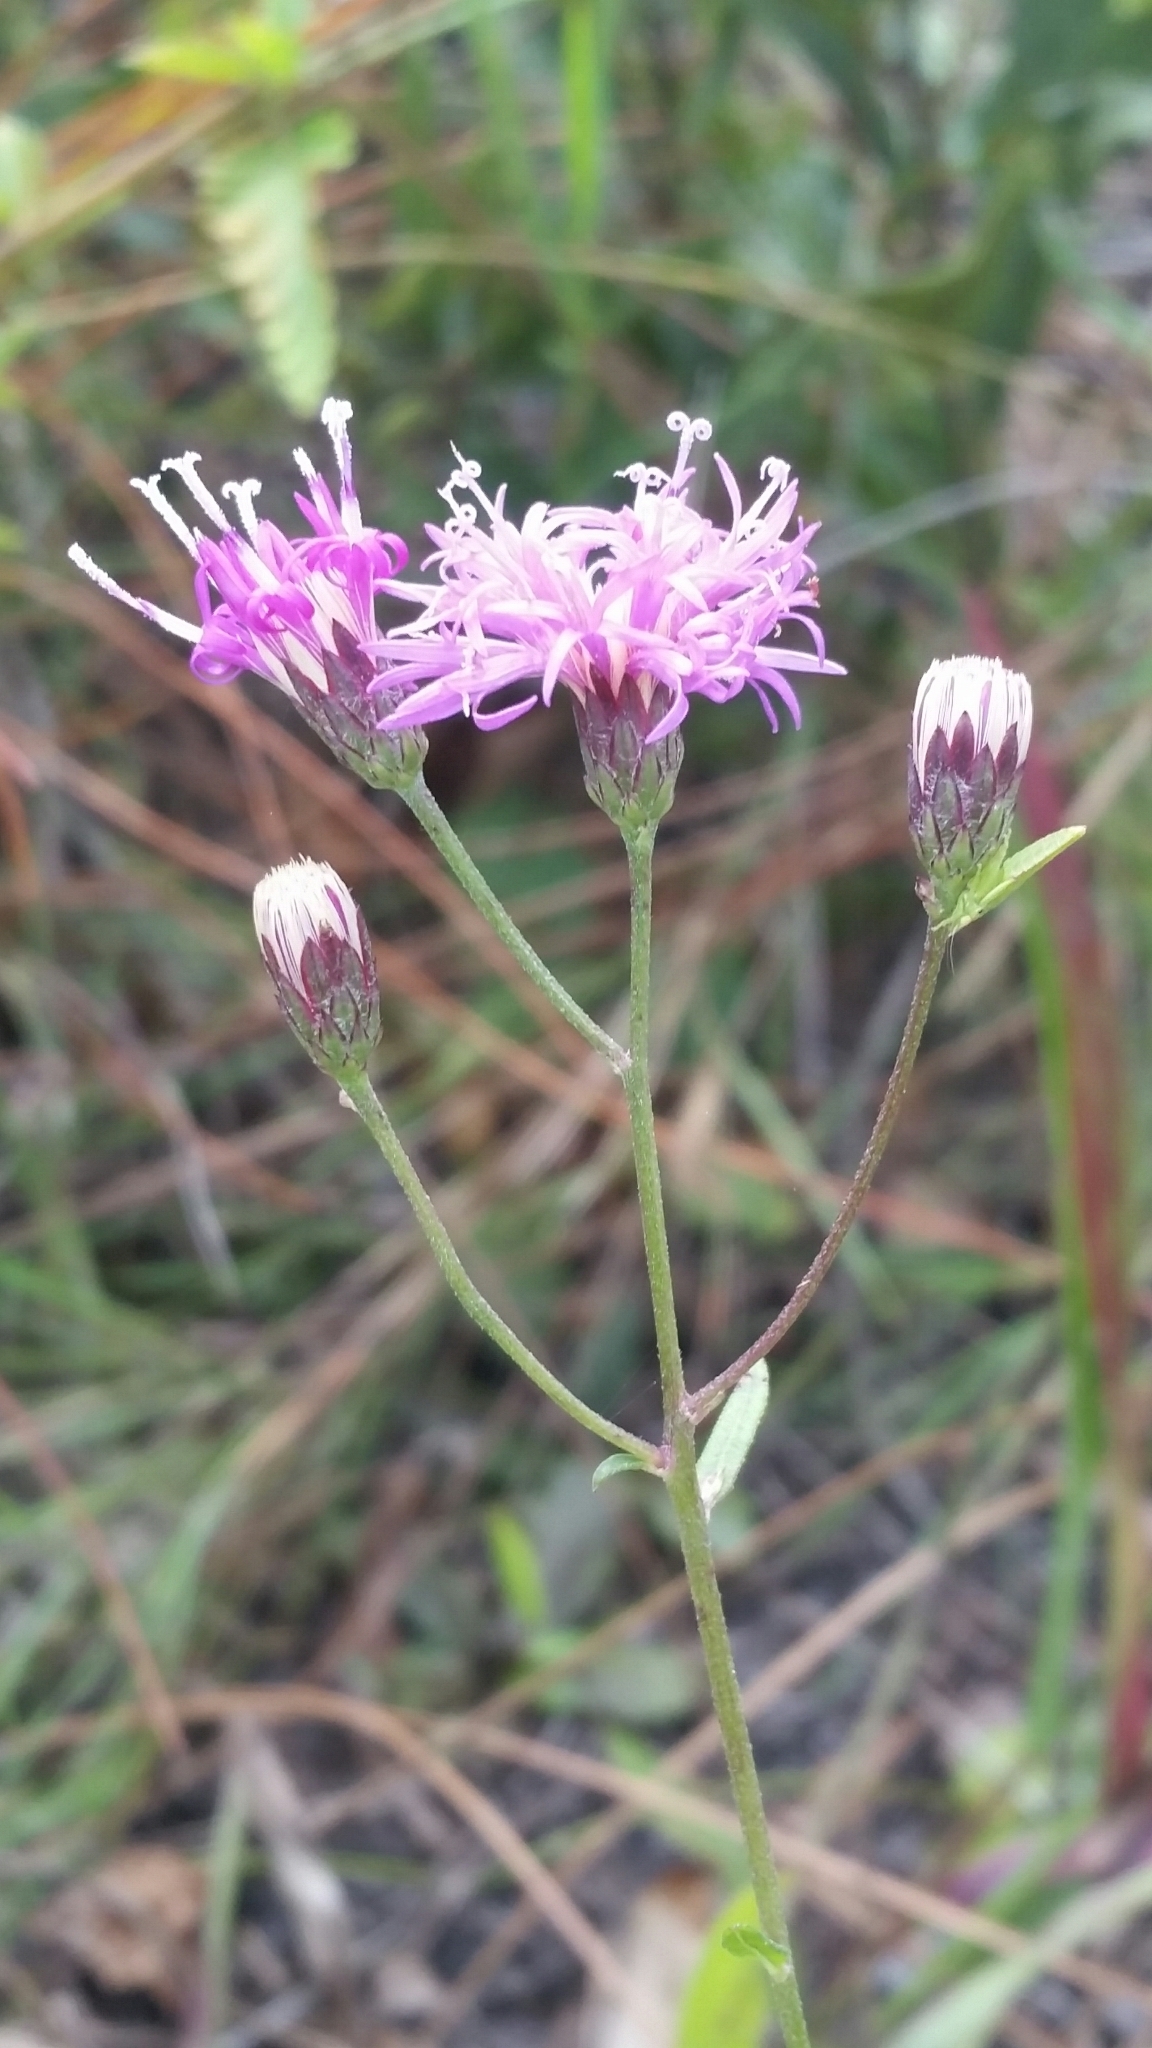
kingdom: Plantae
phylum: Tracheophyta
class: Magnoliopsida
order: Asterales
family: Asteraceae
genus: Vernonia
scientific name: Vernonia blodgettii
